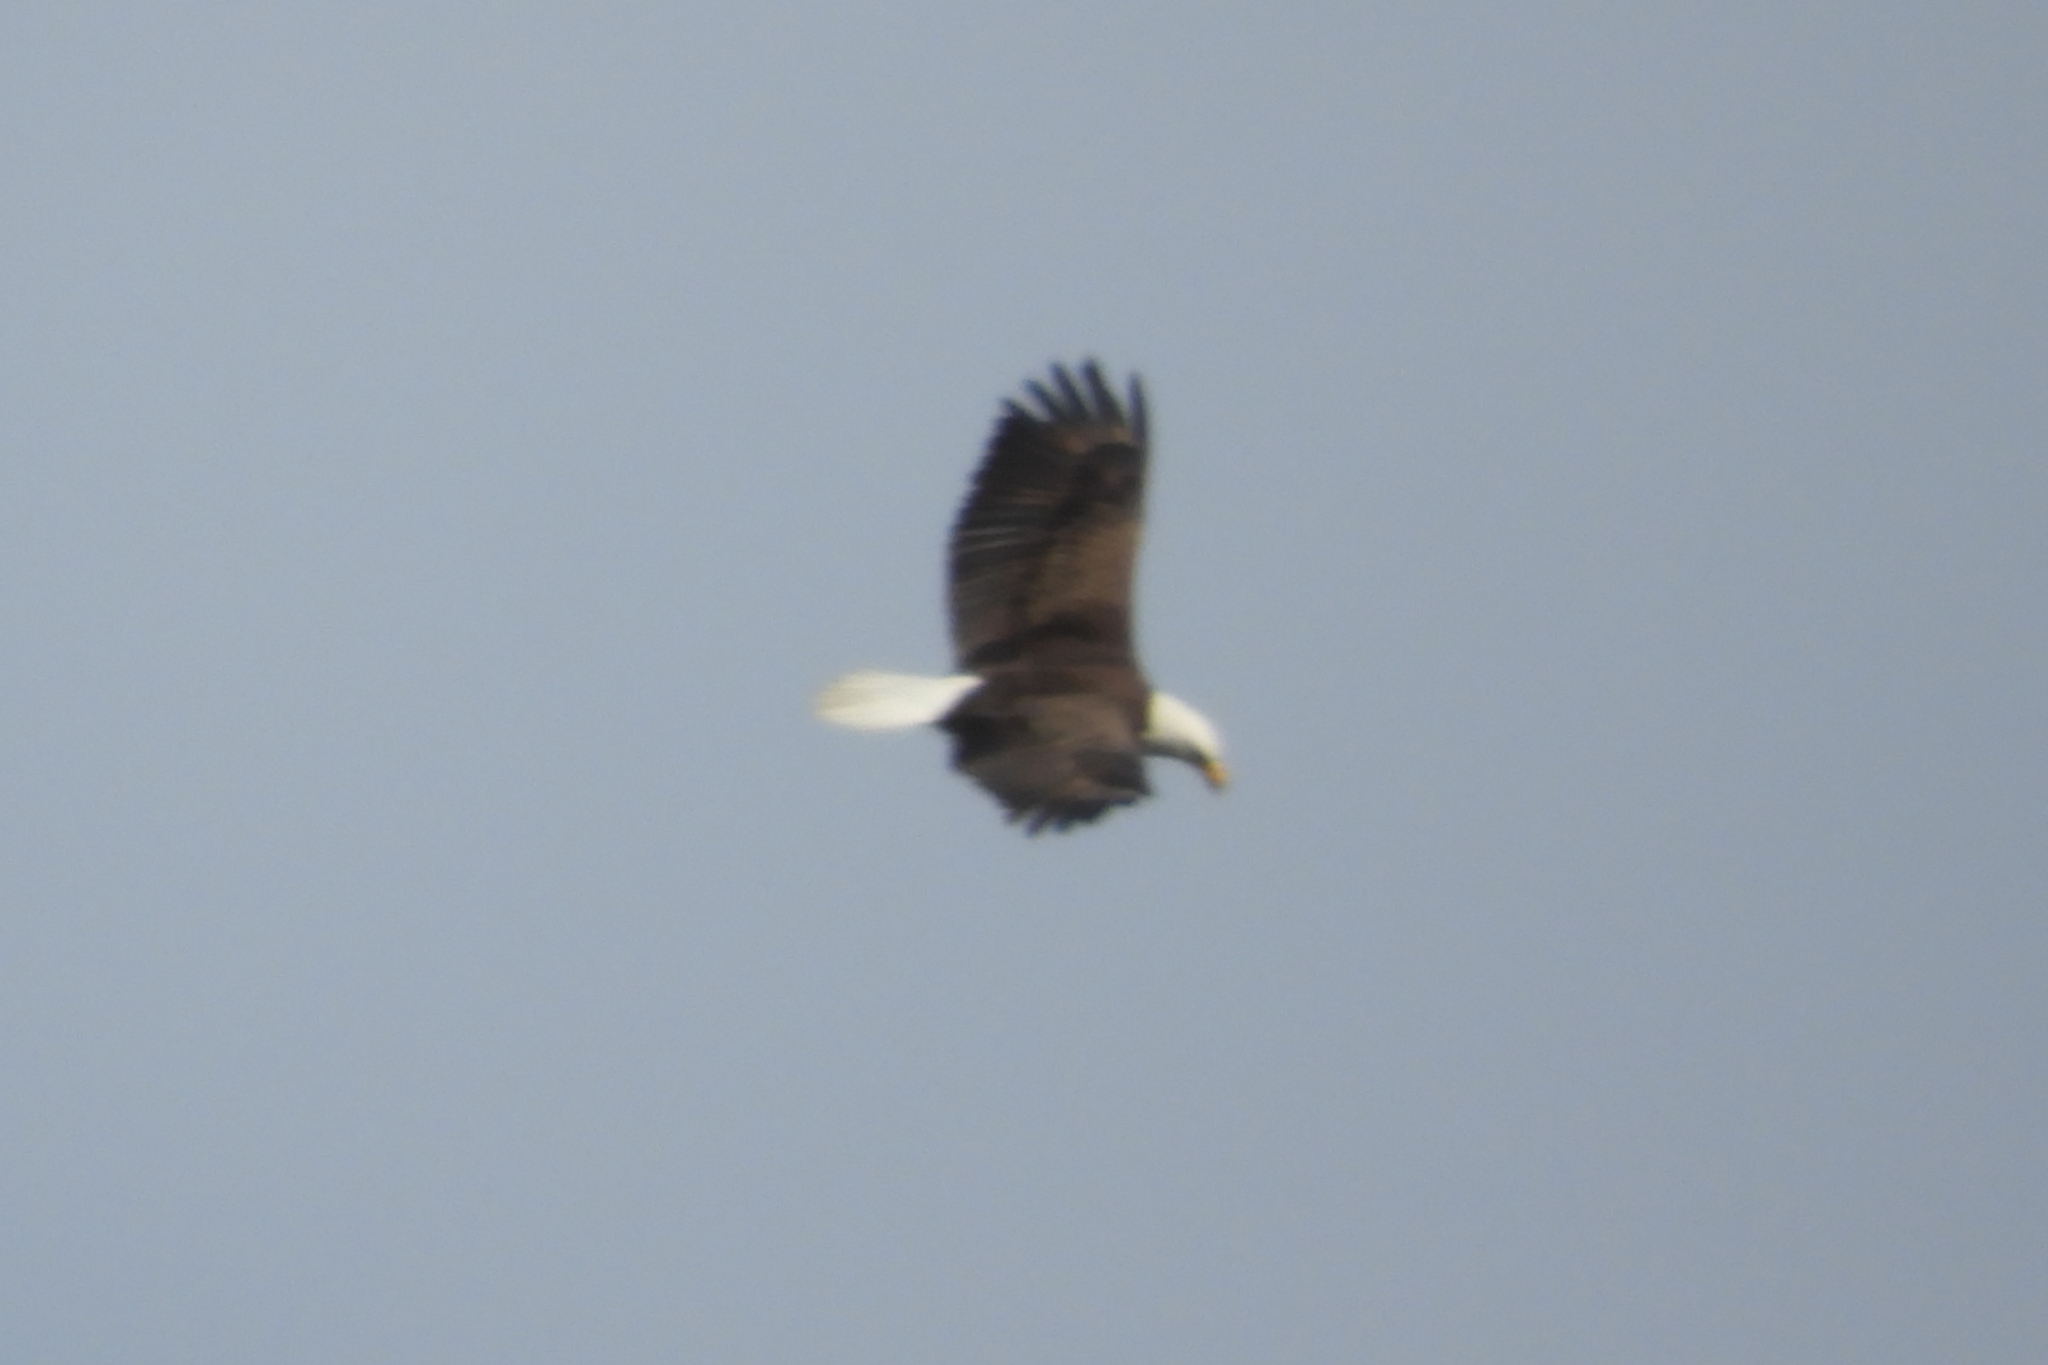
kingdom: Animalia
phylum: Chordata
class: Aves
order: Accipitriformes
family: Accipitridae
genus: Haliaeetus
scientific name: Haliaeetus leucocephalus
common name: Bald eagle
